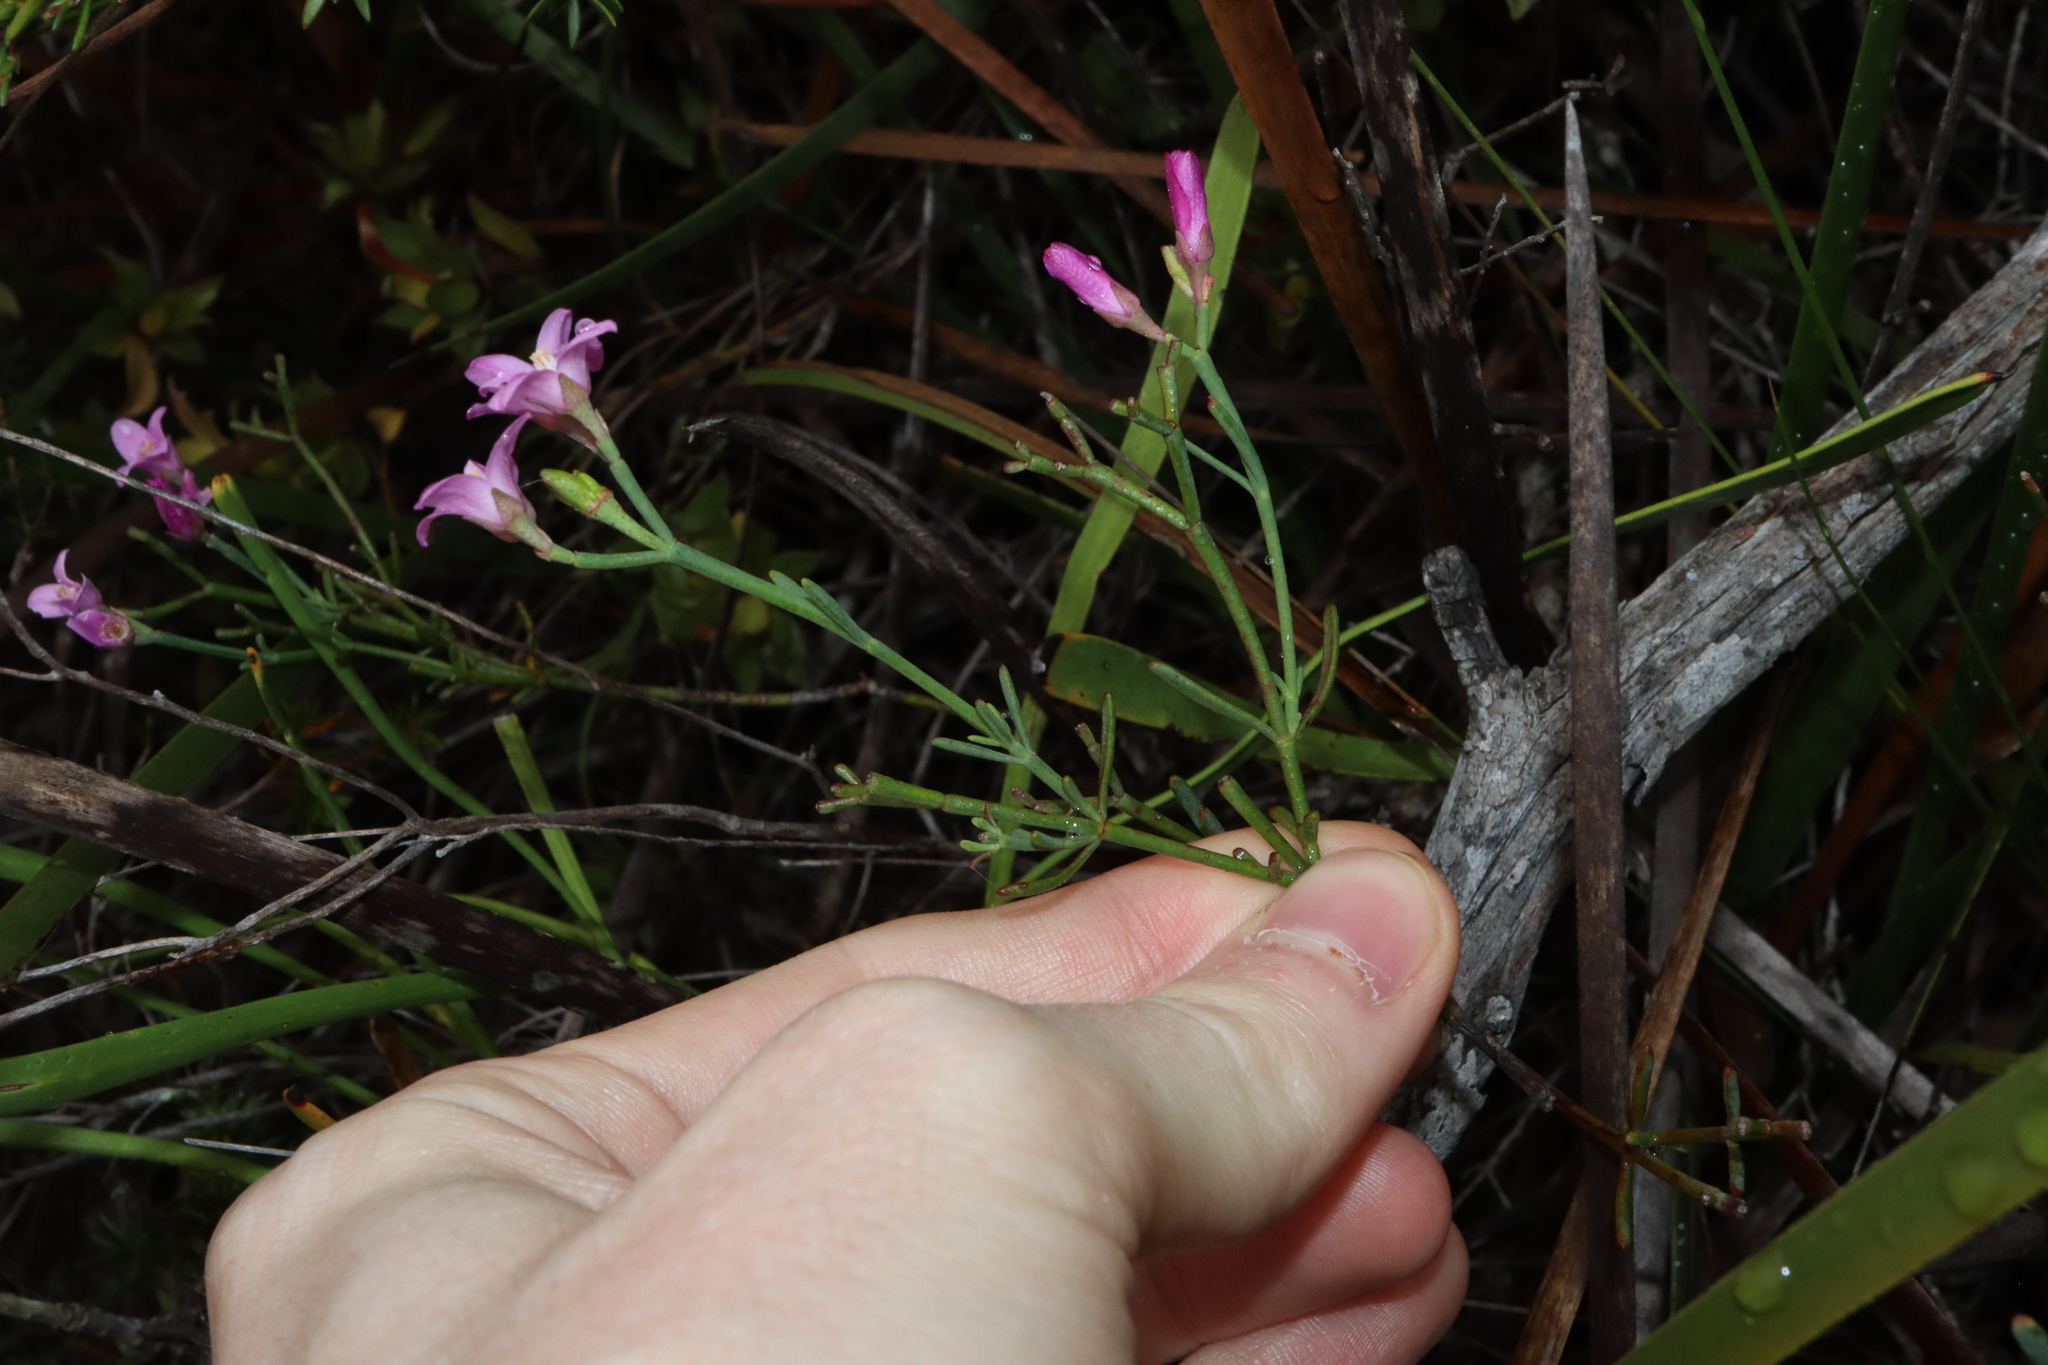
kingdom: Plantae
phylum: Tracheophyta
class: Magnoliopsida
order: Sapindales
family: Rutaceae
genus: Boronia
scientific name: Boronia spathulata
